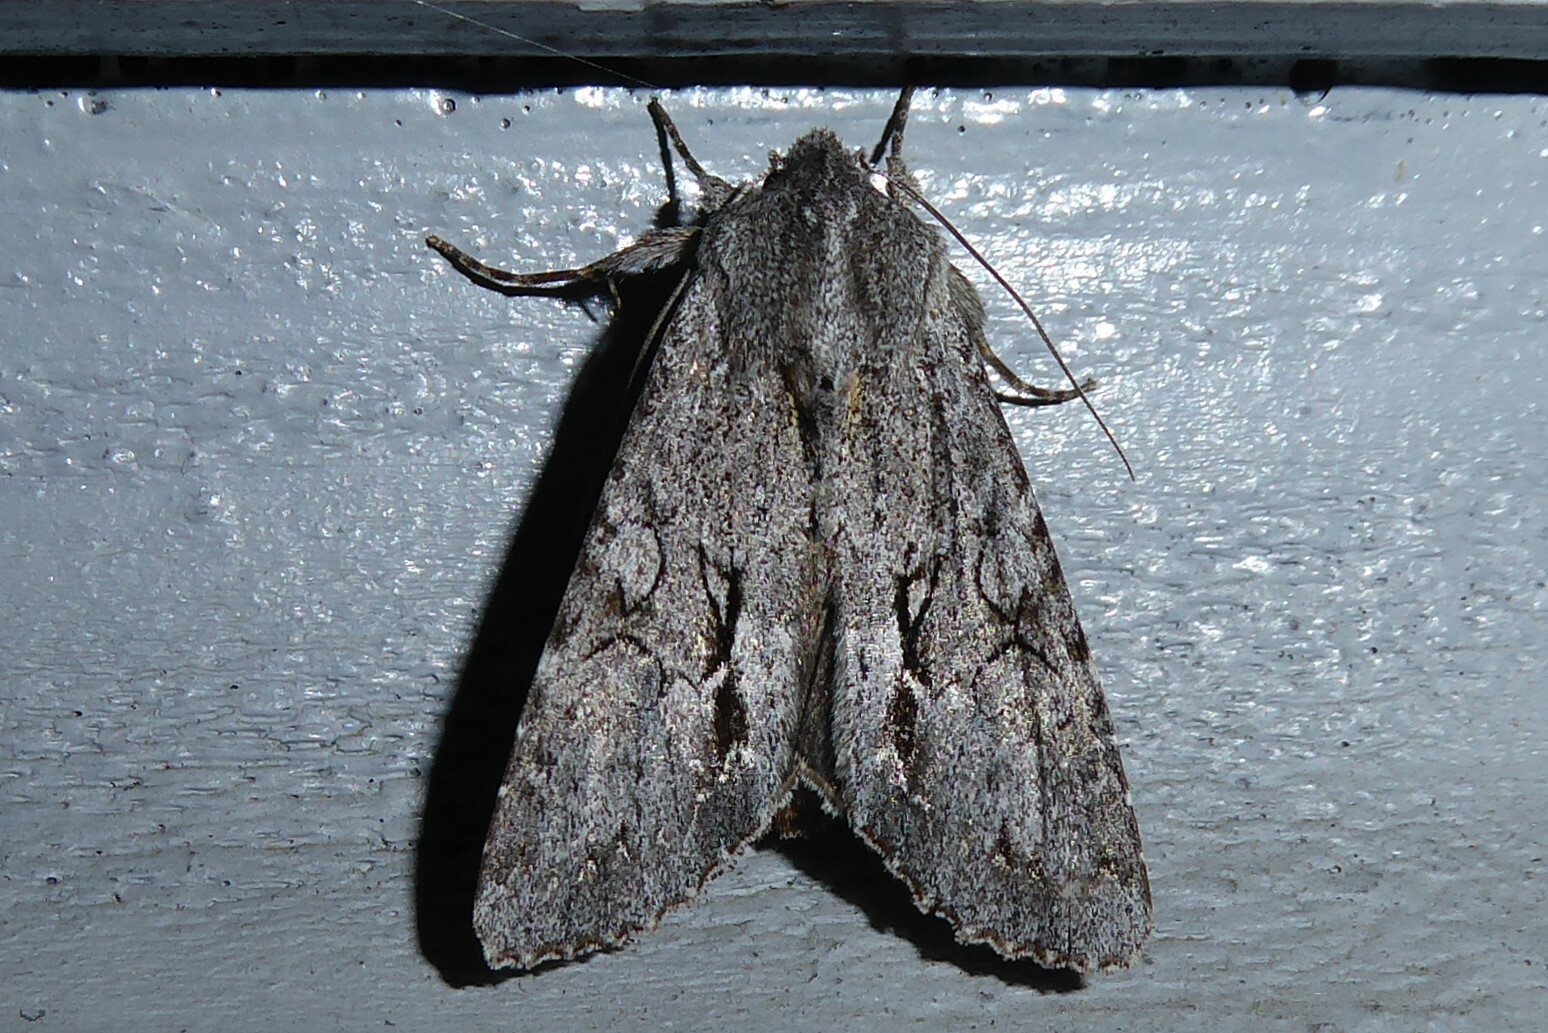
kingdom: Animalia
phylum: Arthropoda
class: Insecta
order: Lepidoptera
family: Noctuidae
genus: Ichneutica
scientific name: Ichneutica
